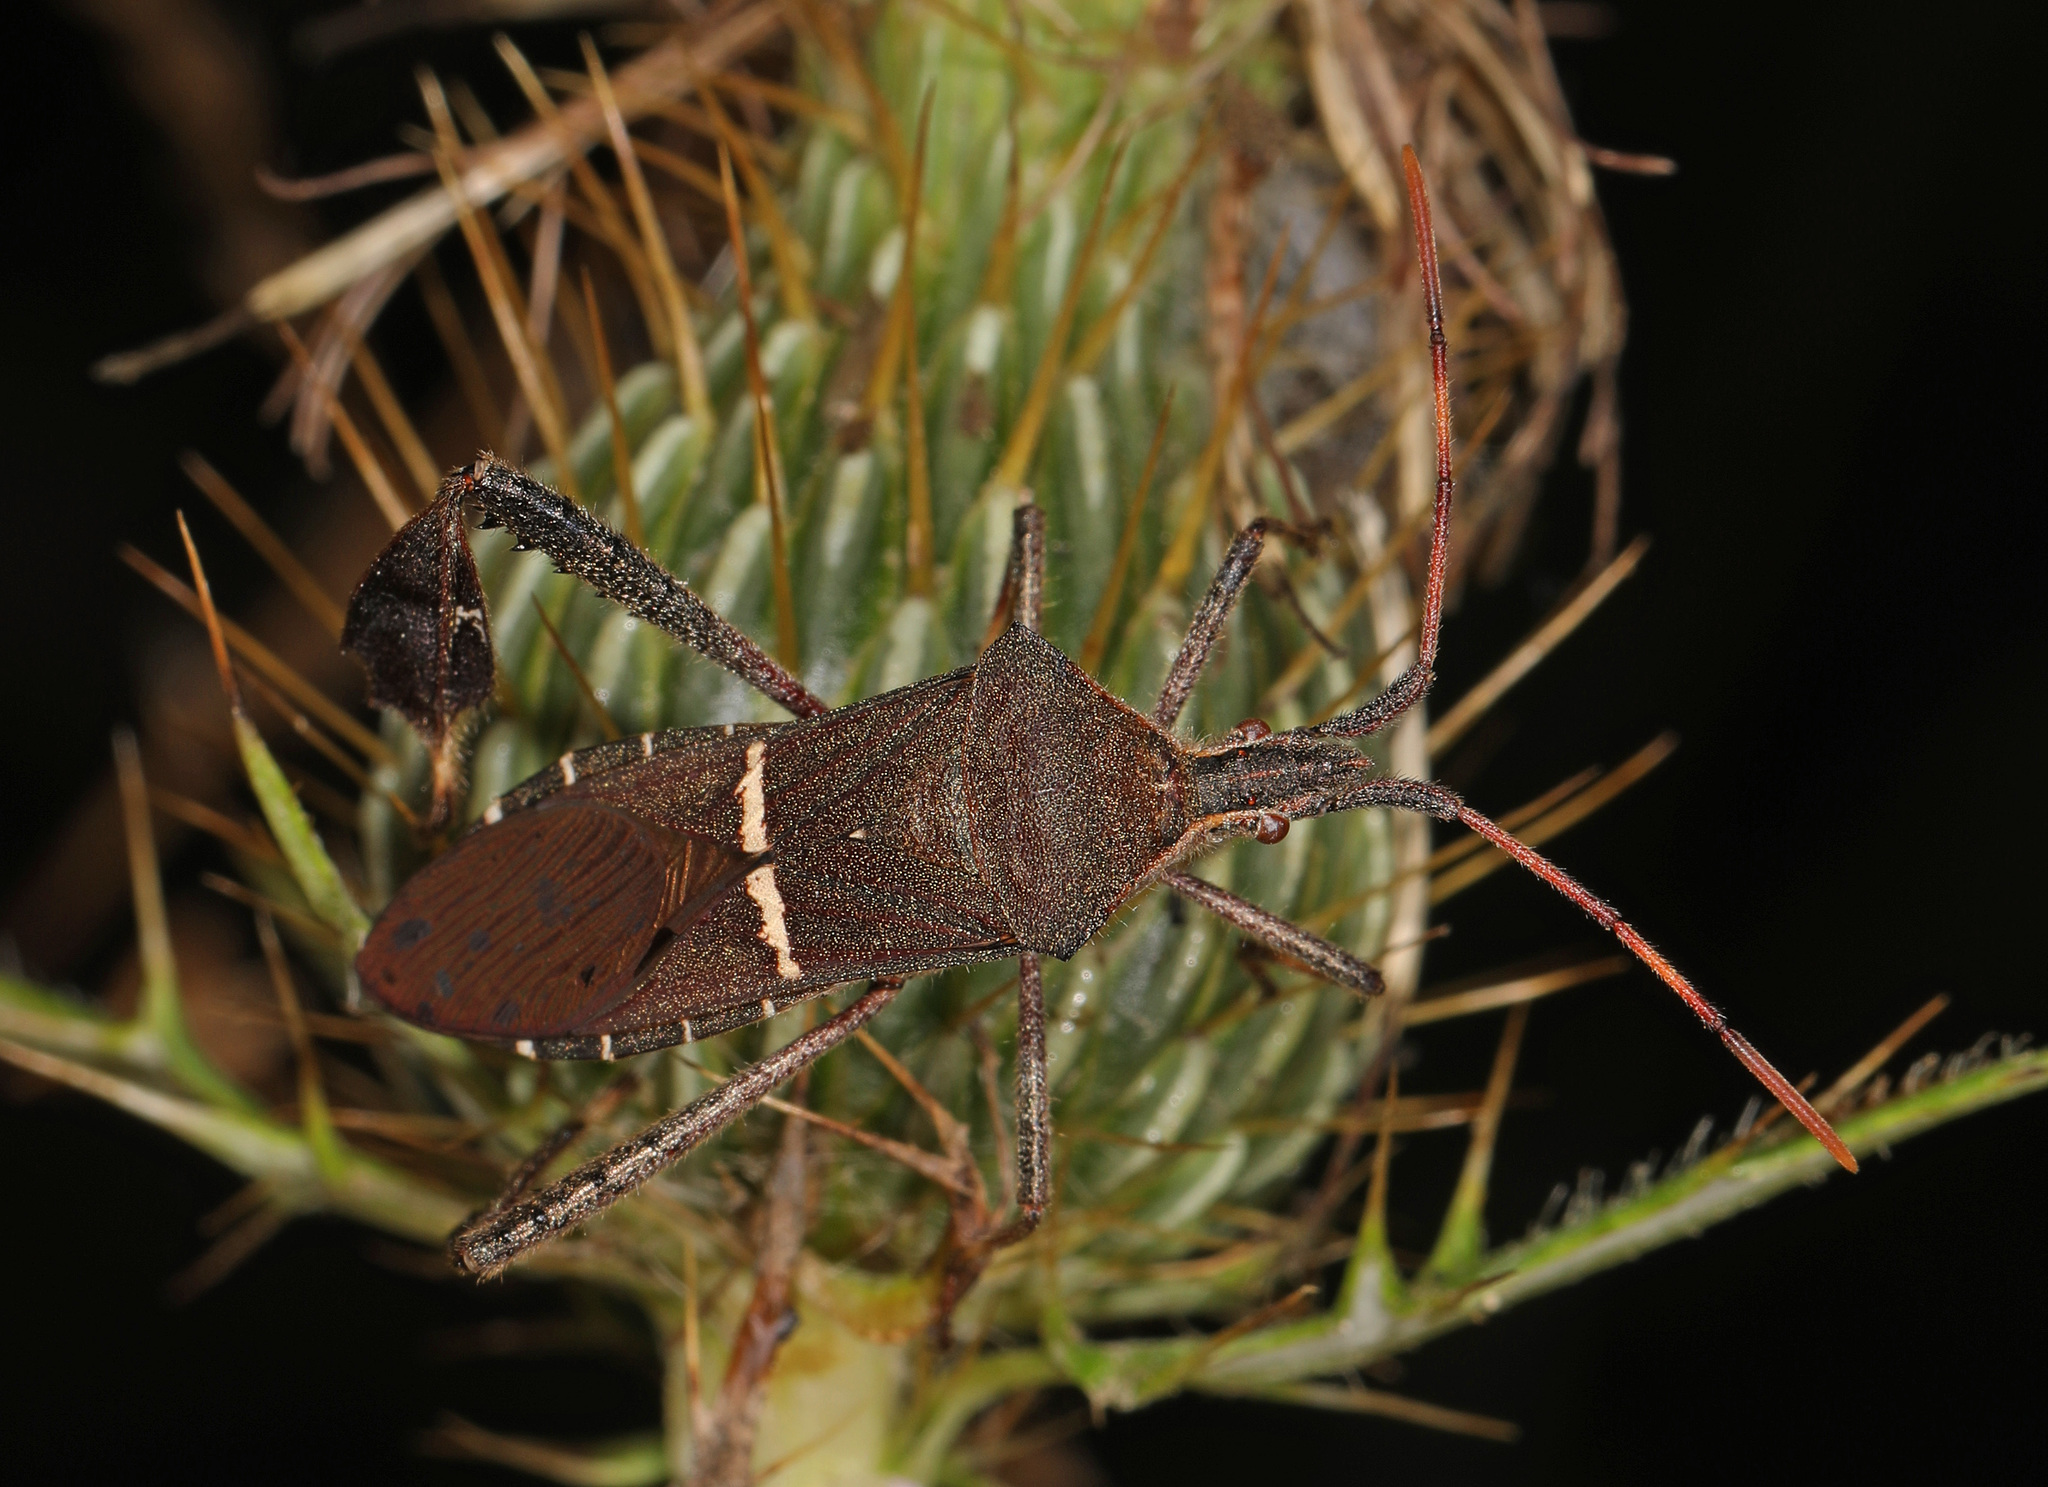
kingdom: Animalia
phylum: Arthropoda
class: Insecta
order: Hemiptera
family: Coreidae
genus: Leptoglossus
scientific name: Leptoglossus phyllopus
